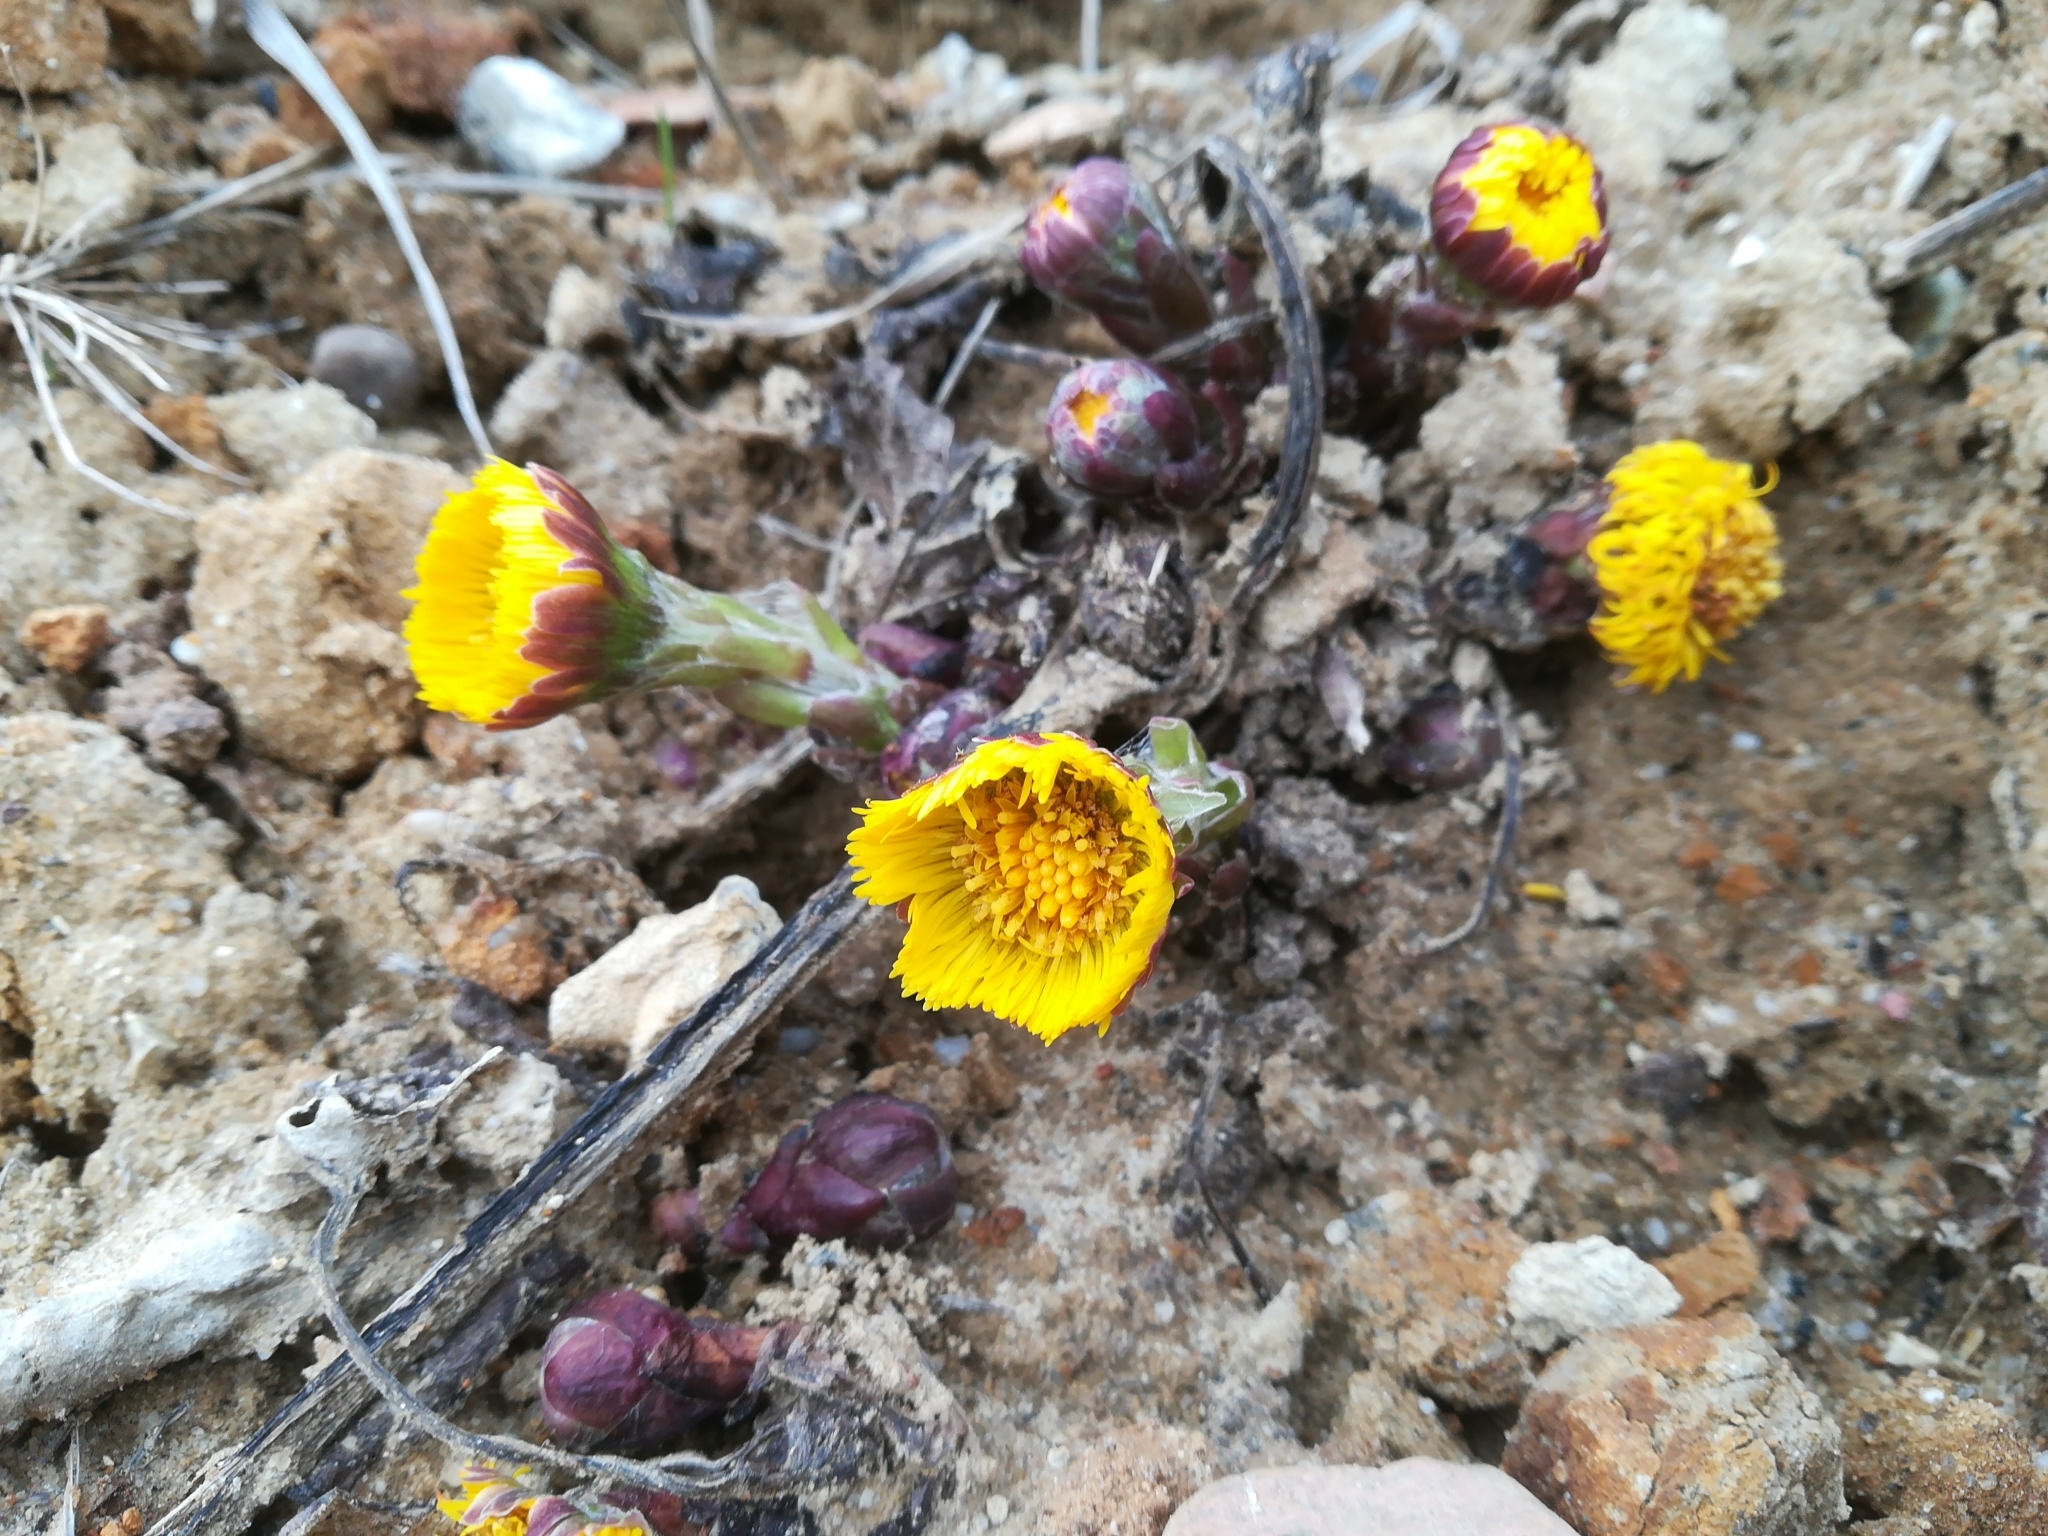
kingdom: Plantae
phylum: Tracheophyta
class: Magnoliopsida
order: Asterales
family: Asteraceae
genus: Tussilago
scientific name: Tussilago farfara
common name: Coltsfoot
